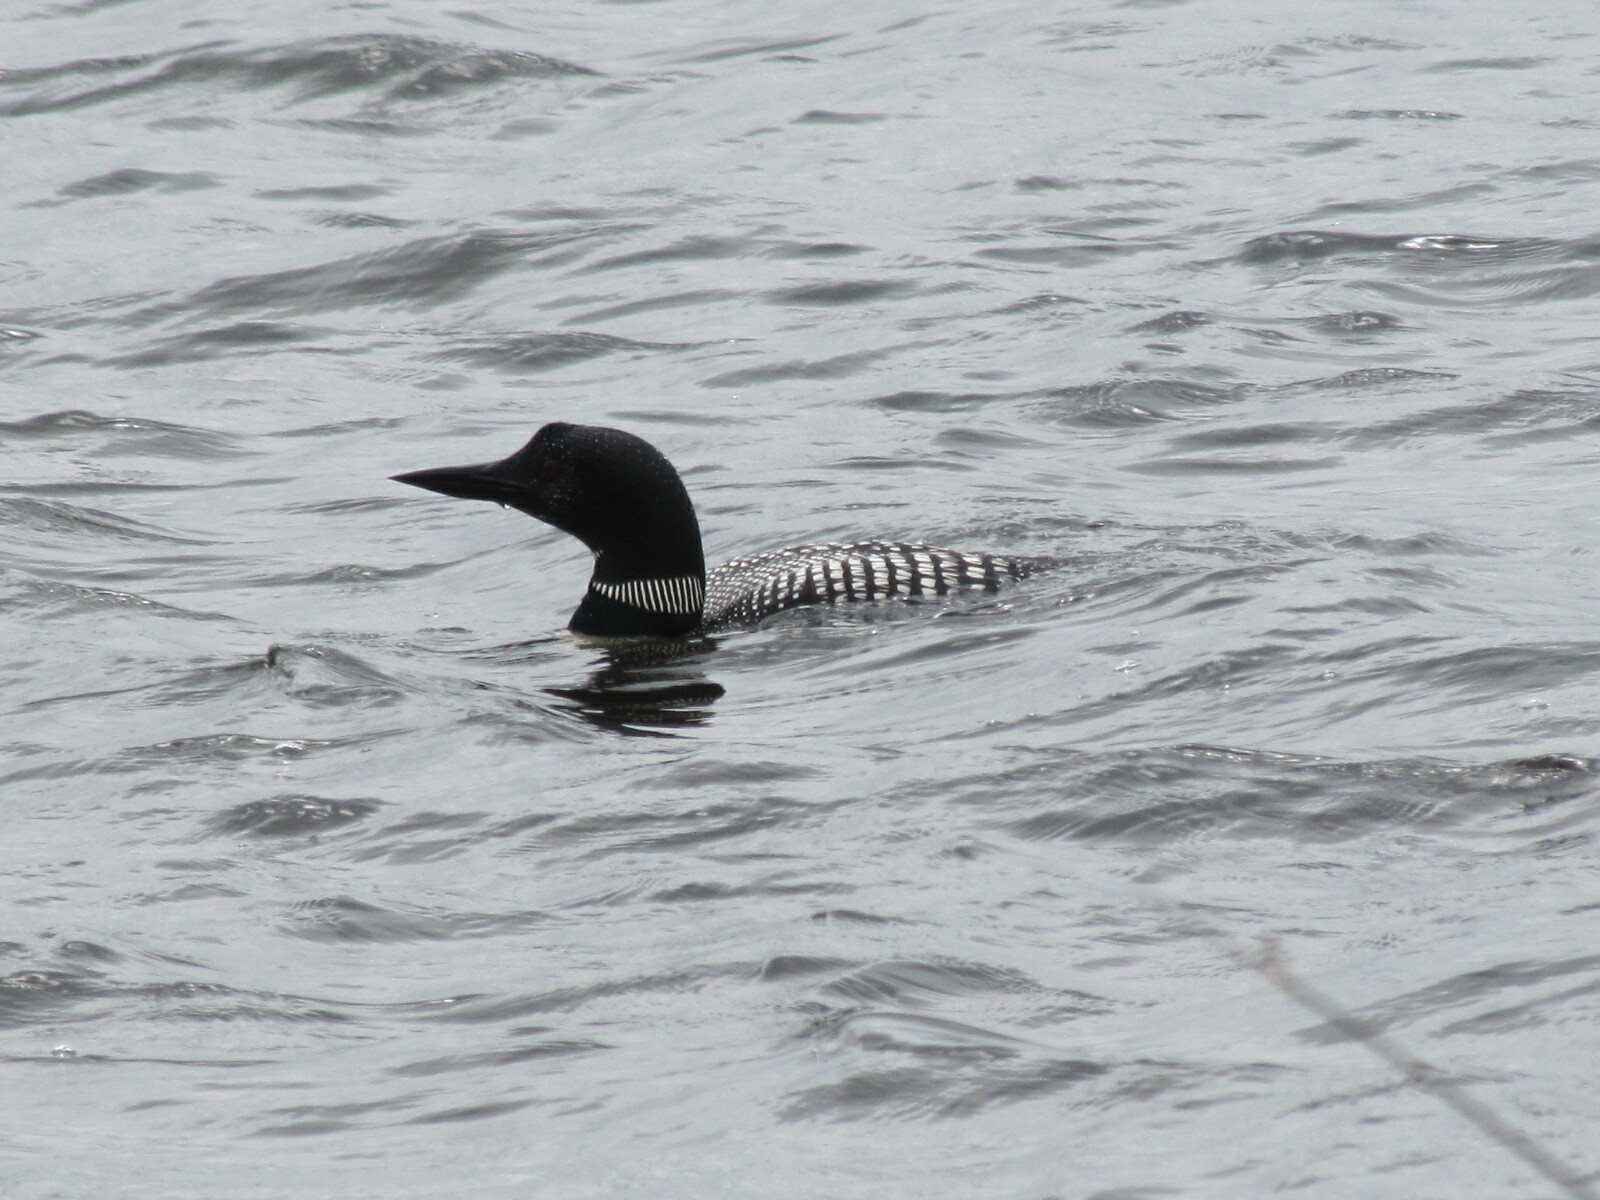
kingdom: Animalia
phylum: Chordata
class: Aves
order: Gaviiformes
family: Gaviidae
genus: Gavia
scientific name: Gavia immer
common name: Common loon
